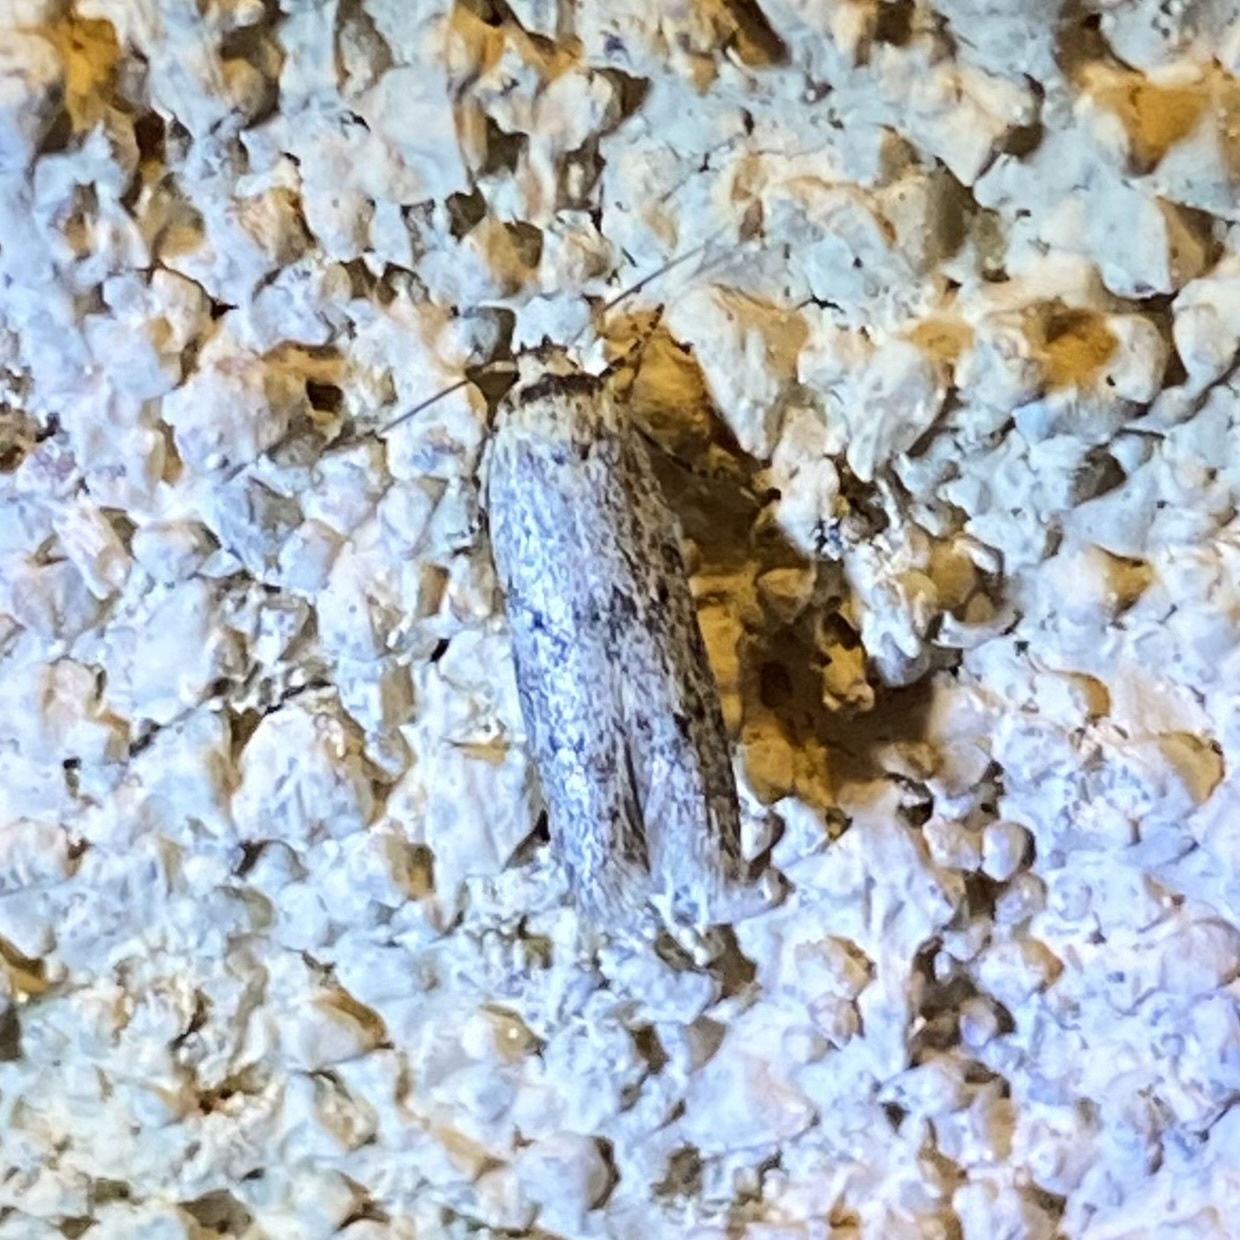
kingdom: Animalia
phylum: Arthropoda
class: Insecta
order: Lepidoptera
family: Blastobasidae
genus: Blastobasis
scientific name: Blastobasis
